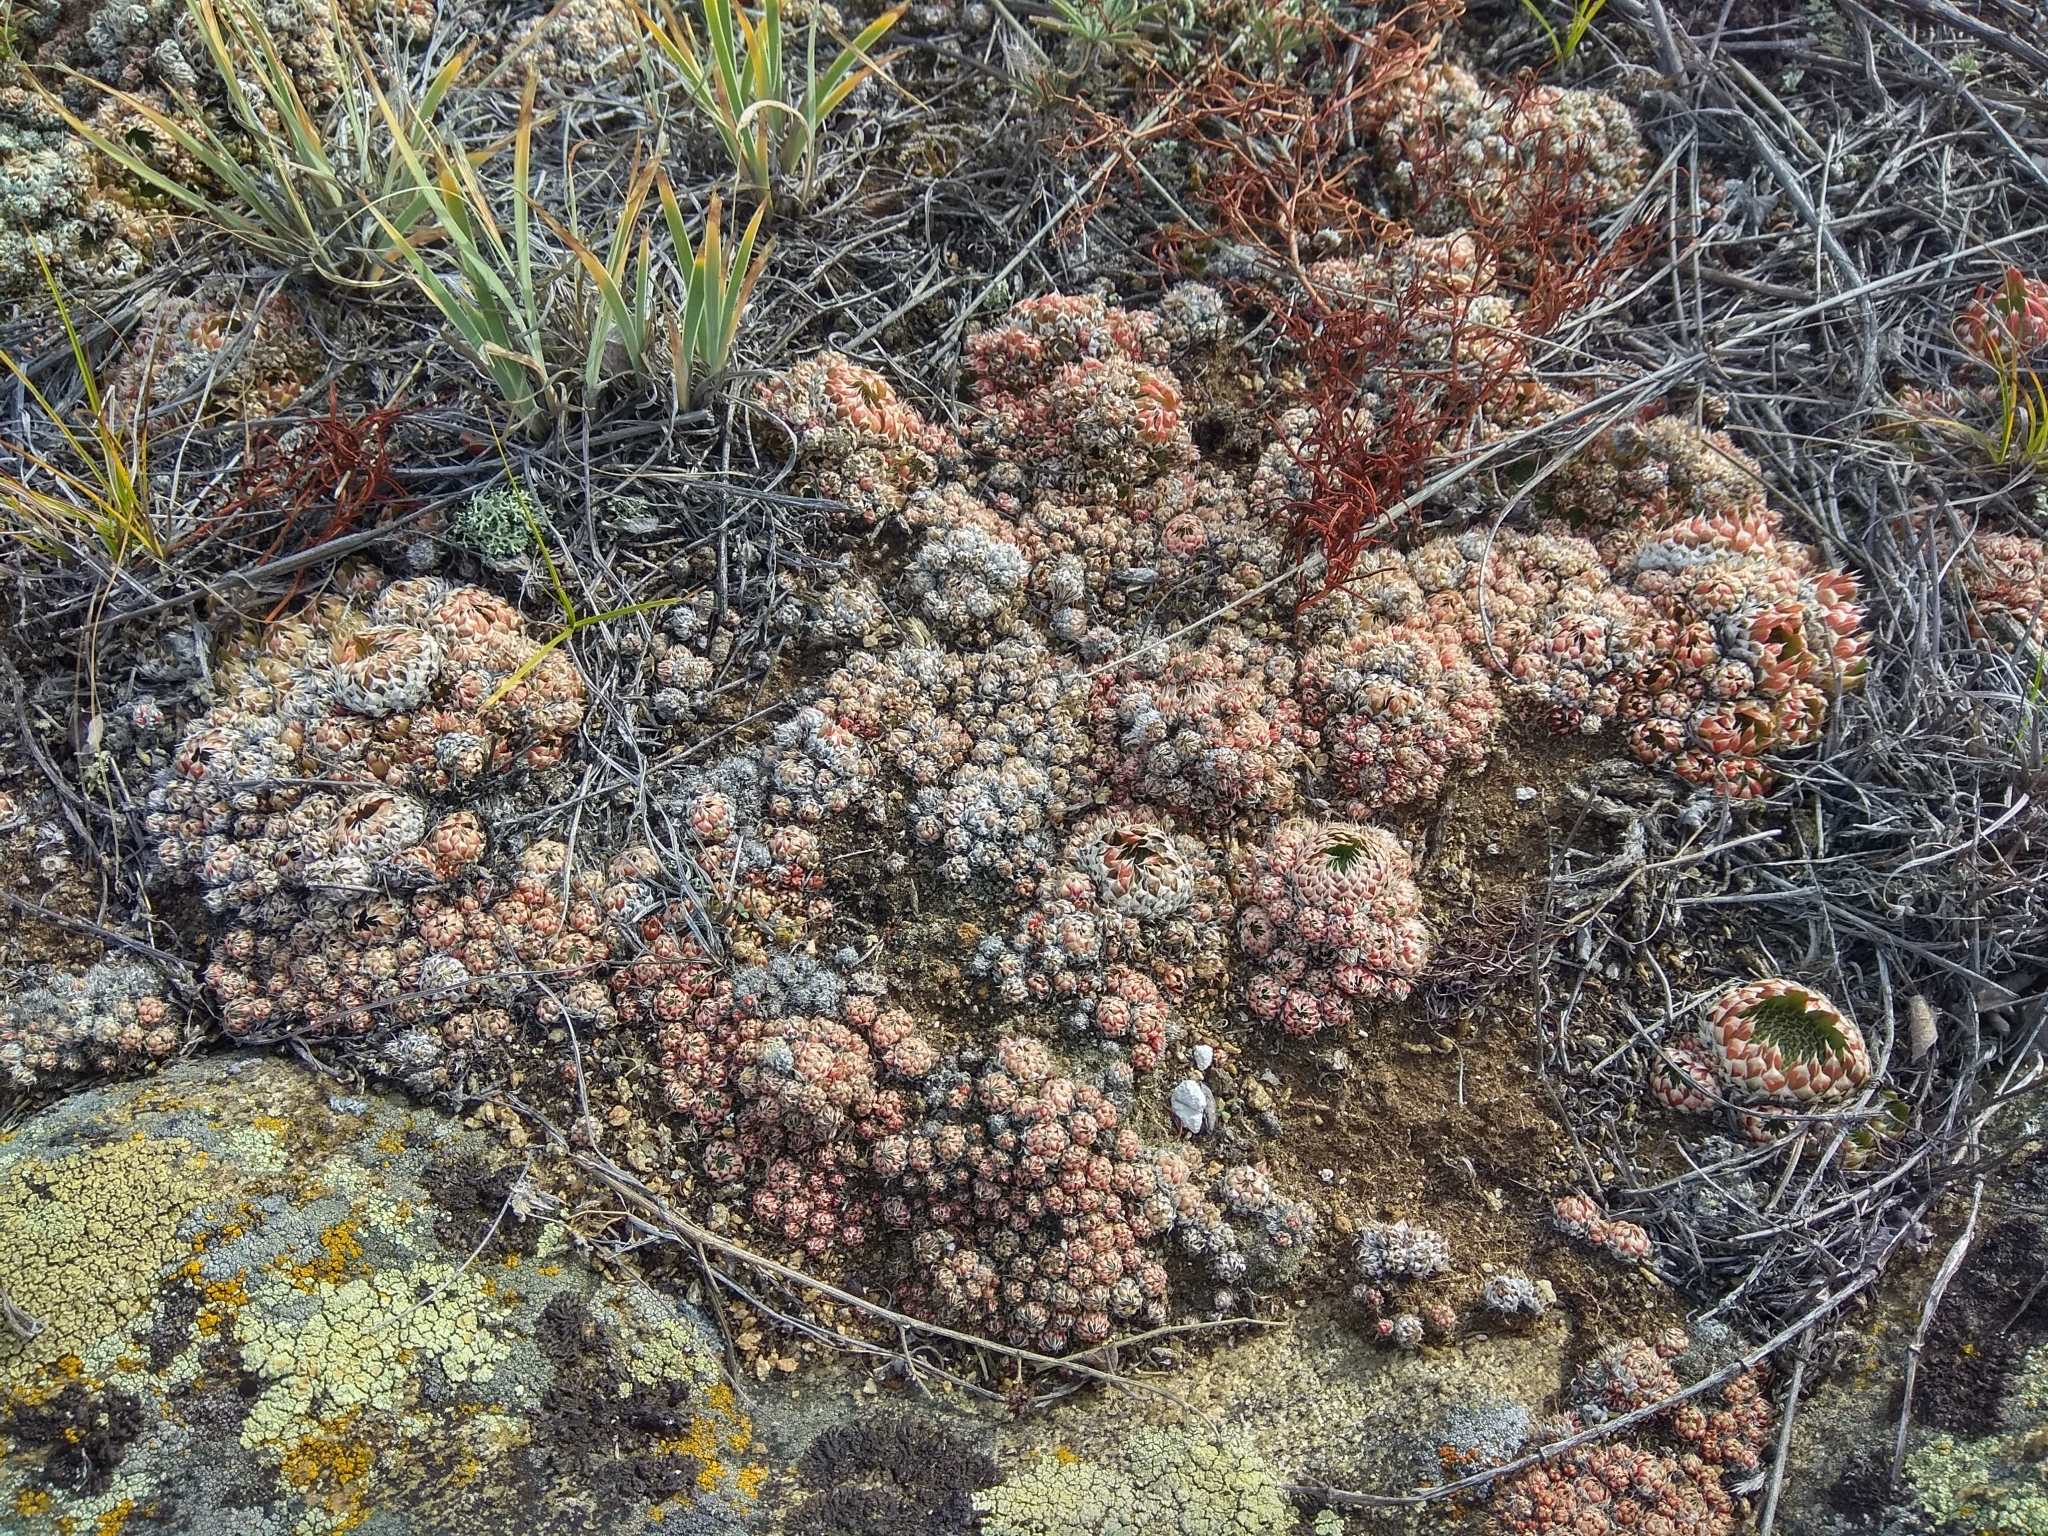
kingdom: Plantae
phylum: Tracheophyta
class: Magnoliopsida
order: Saxifragales
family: Crassulaceae
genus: Orostachys
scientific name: Orostachys spinosa
